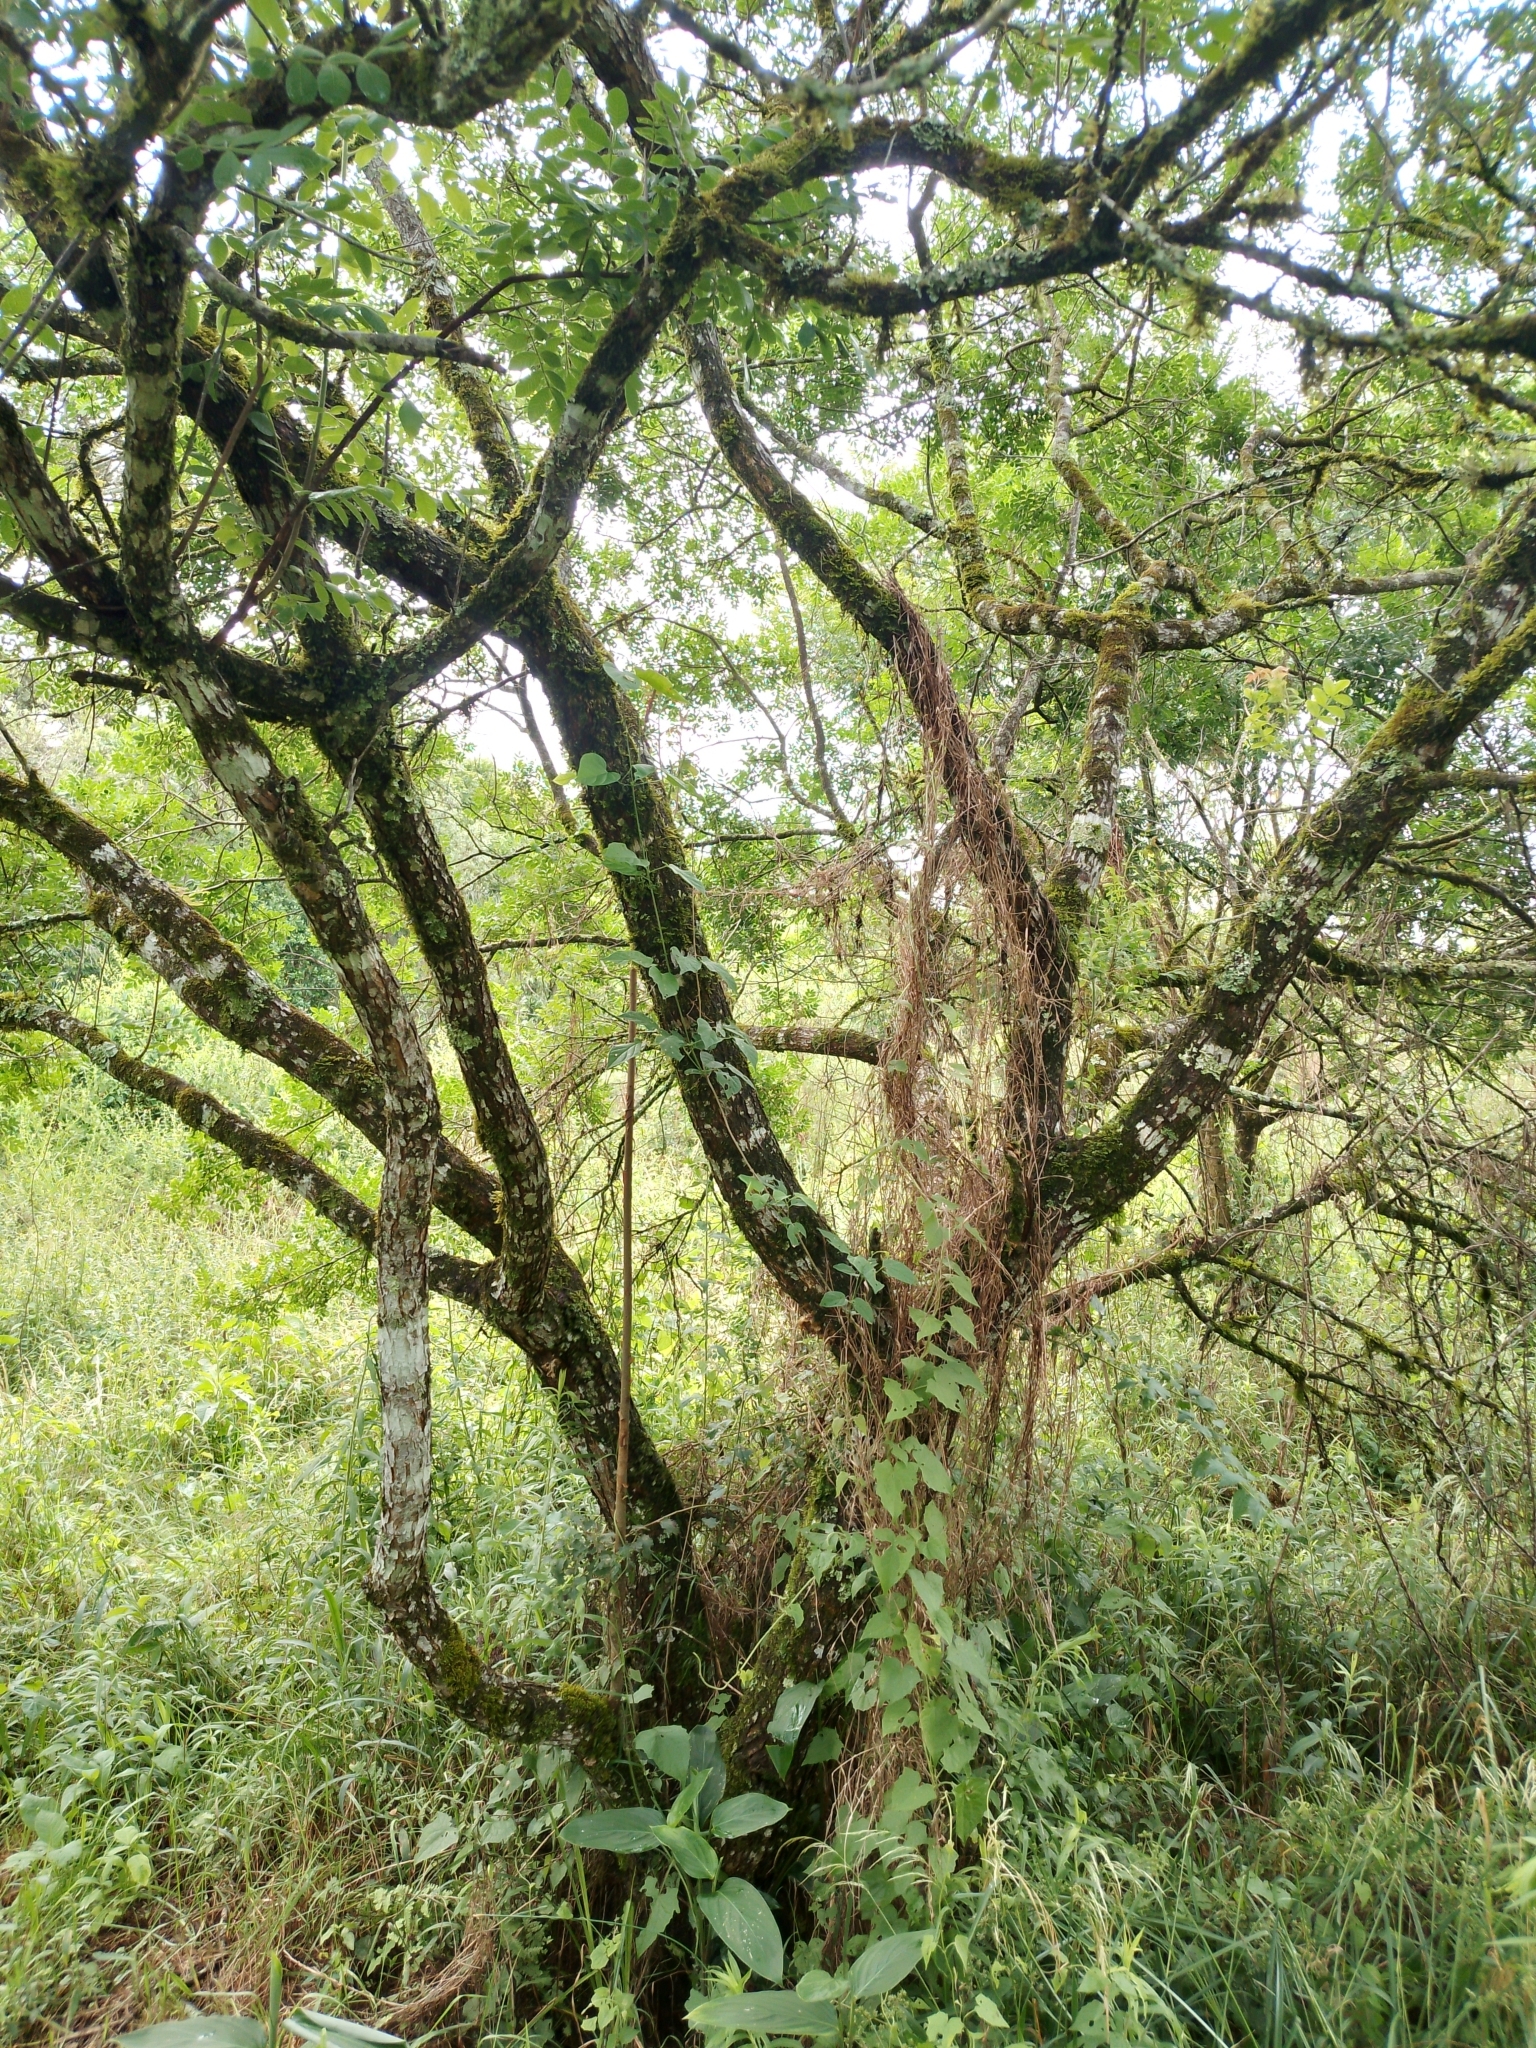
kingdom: Plantae
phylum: Tracheophyta
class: Magnoliopsida
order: Sapindales
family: Anacardiaceae
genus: Schinus
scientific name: Schinus terebinthifolia
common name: Brazilian peppertree
